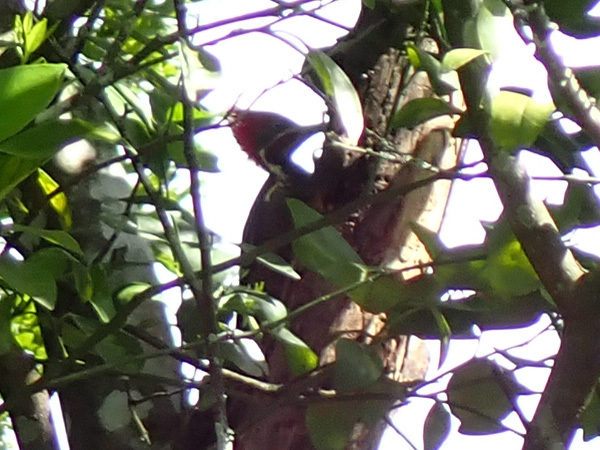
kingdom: Animalia
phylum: Chordata
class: Aves
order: Piciformes
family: Picidae
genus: Dryocopus
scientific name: Dryocopus lineatus
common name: Lineated woodpecker
